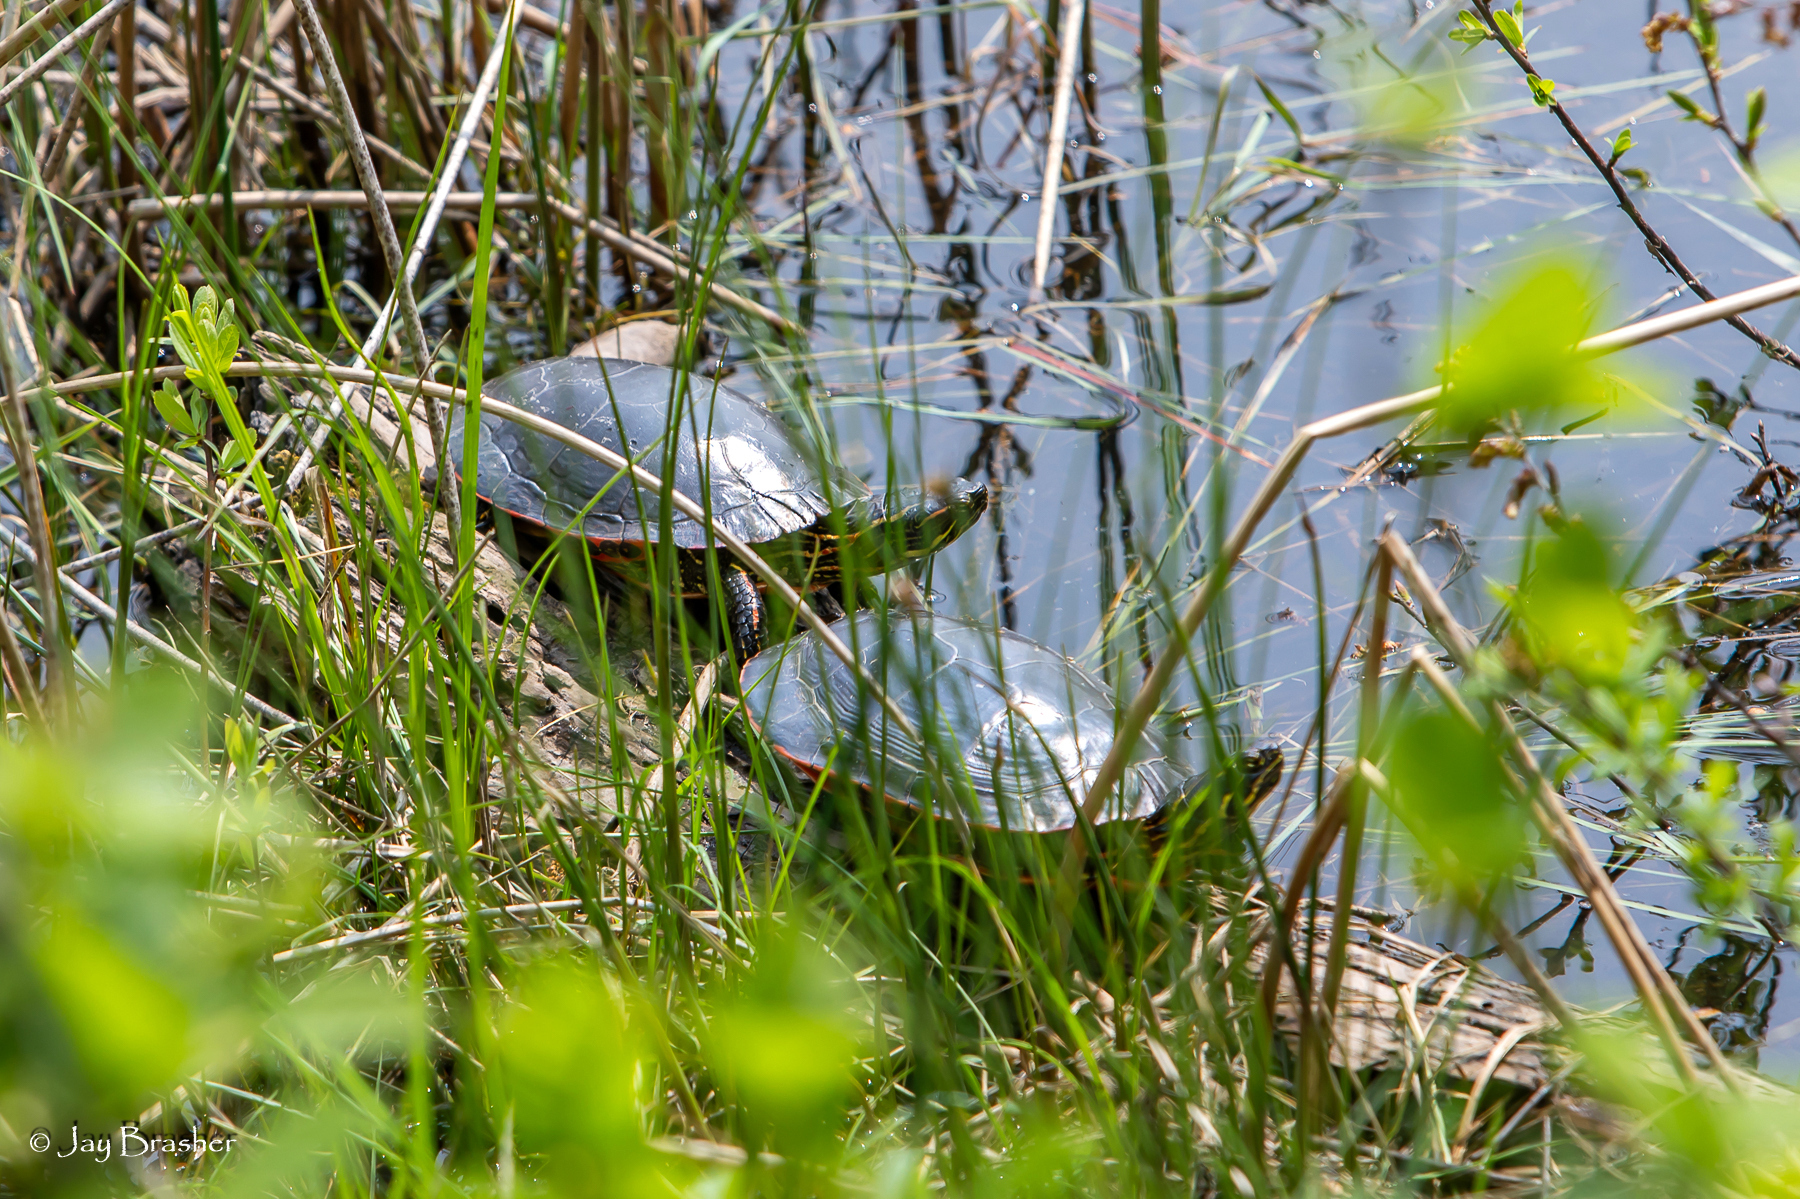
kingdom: Animalia
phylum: Chordata
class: Testudines
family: Emydidae
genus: Chrysemys
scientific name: Chrysemys picta
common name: Painted turtle
